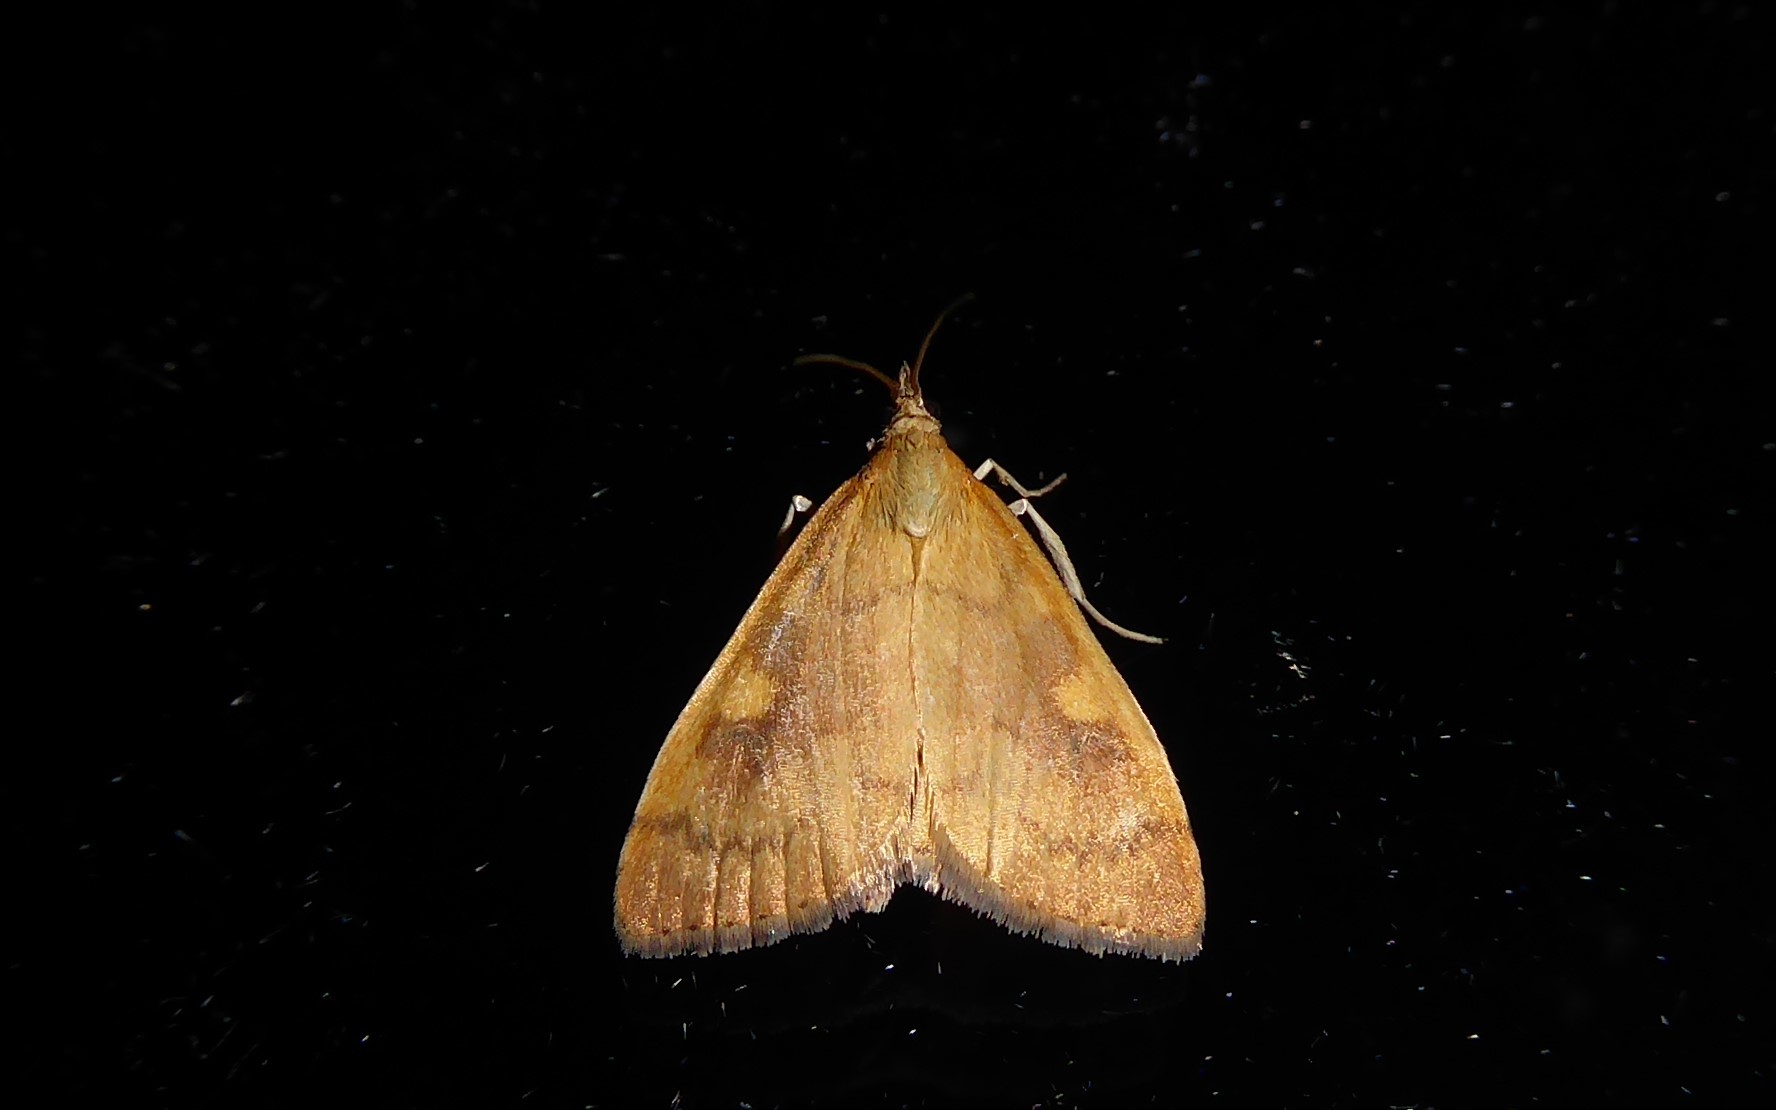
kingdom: Animalia
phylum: Arthropoda
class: Insecta
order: Lepidoptera
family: Crambidae
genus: Udea
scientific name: Udea Mnesictena flavidalis
